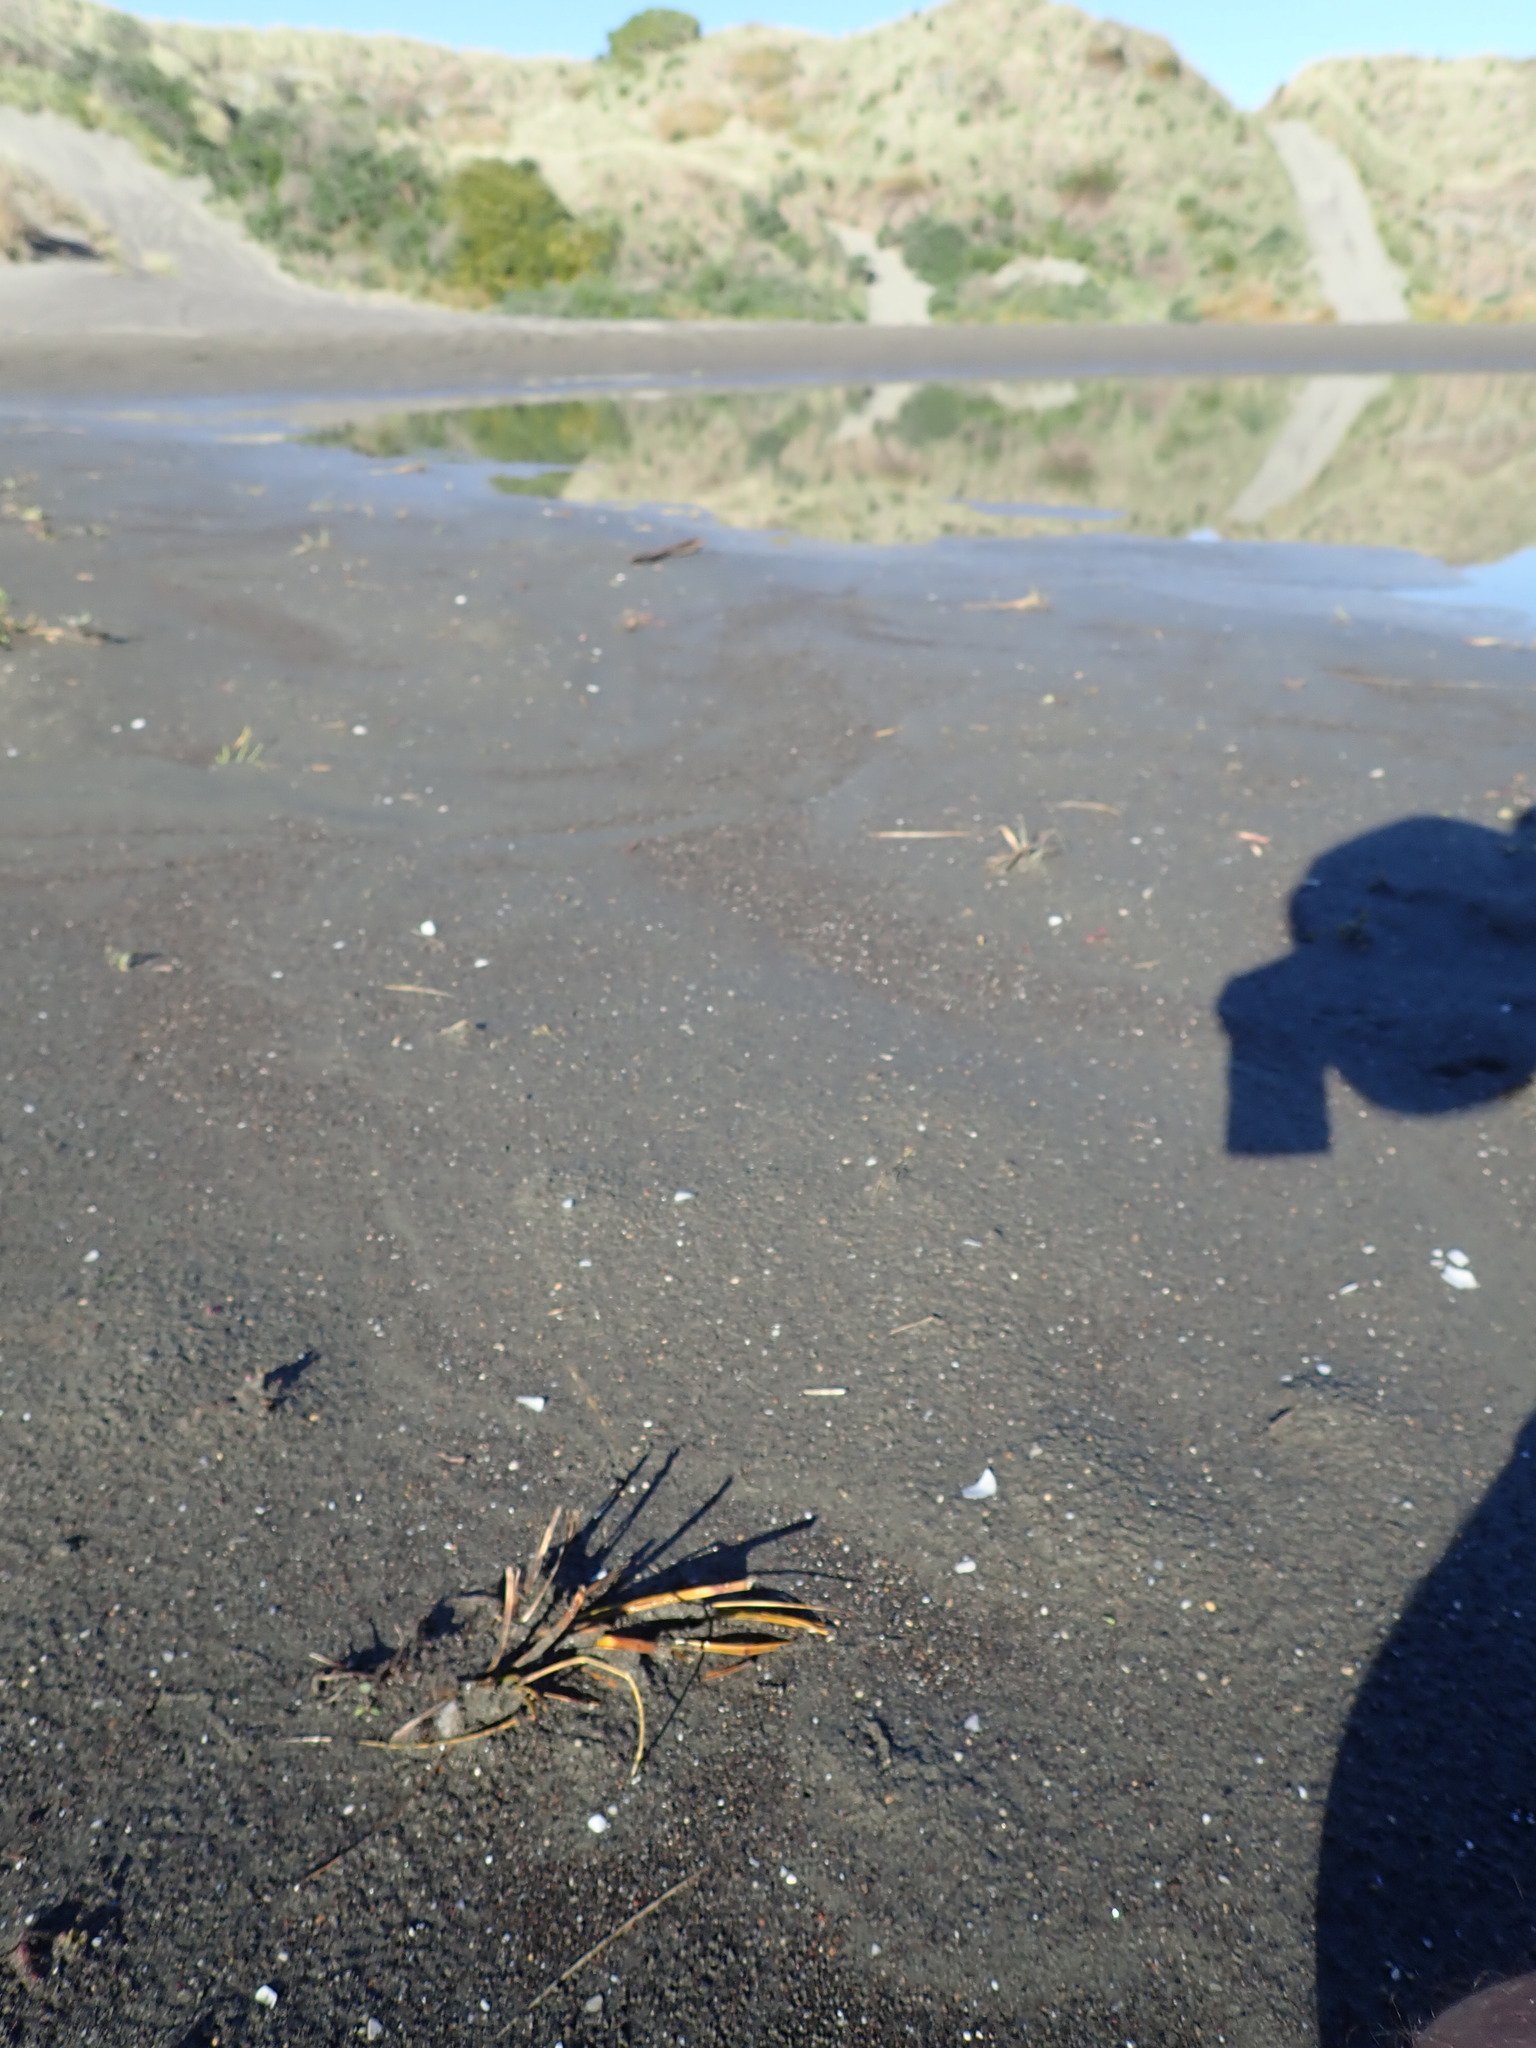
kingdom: Plantae
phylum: Tracheophyta
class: Liliopsida
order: Poales
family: Cyperaceae
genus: Ficinia
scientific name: Ficinia spiralis
